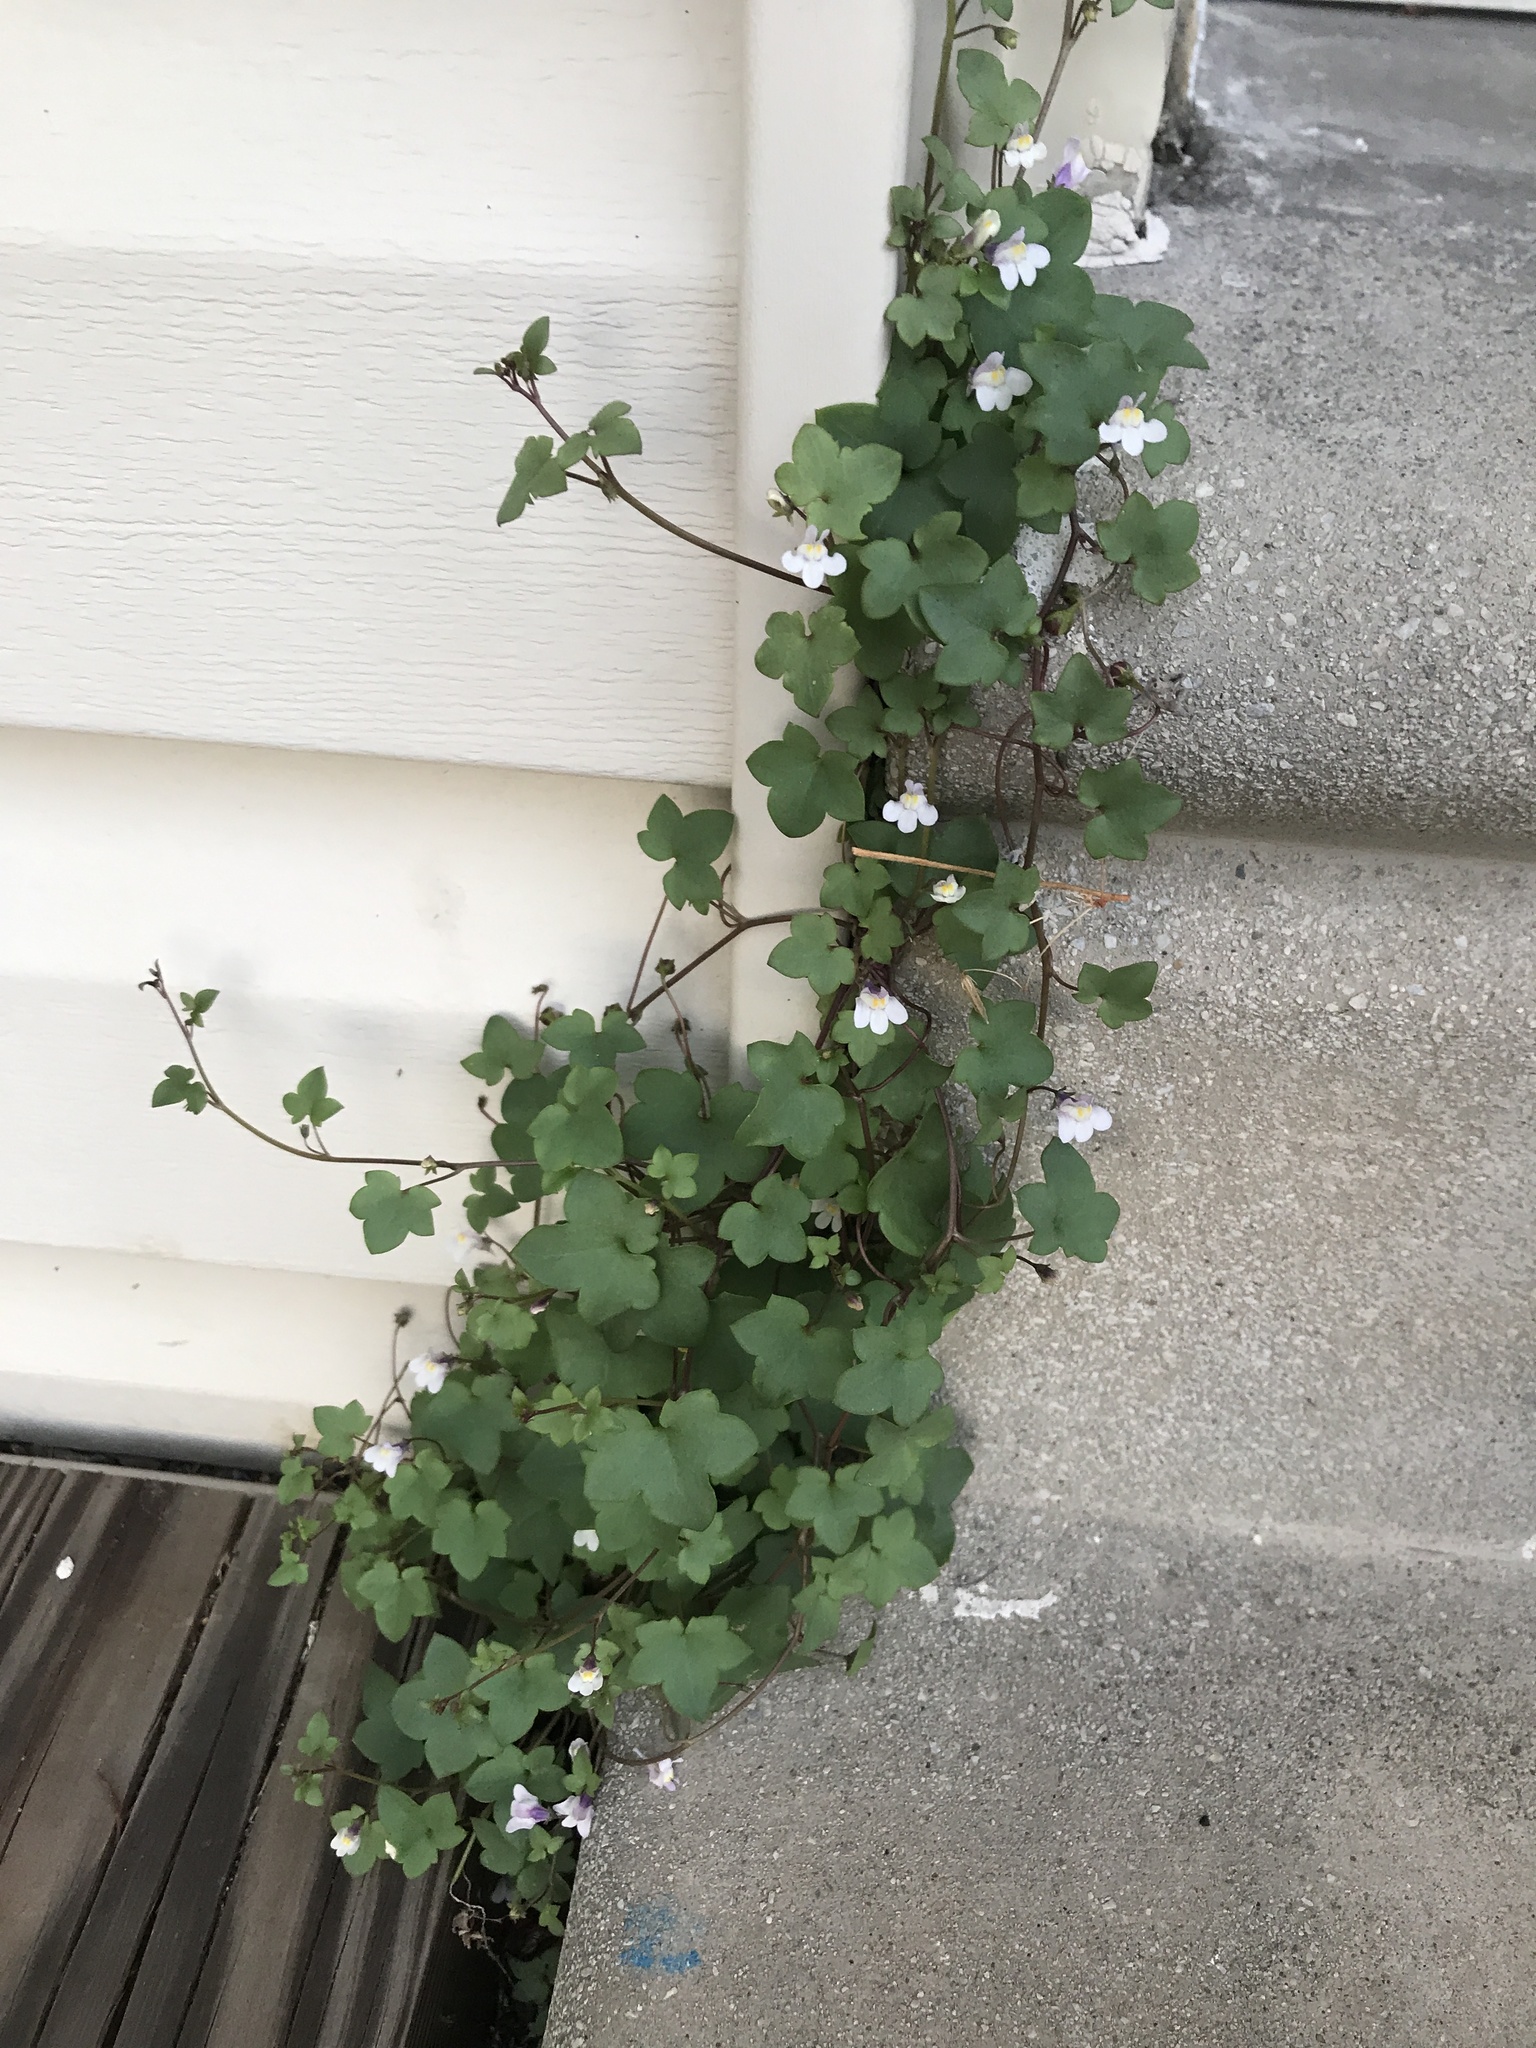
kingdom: Plantae
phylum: Tracheophyta
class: Magnoliopsida
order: Lamiales
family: Plantaginaceae
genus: Cymbalaria
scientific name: Cymbalaria muralis
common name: Ivy-leaved toadflax
